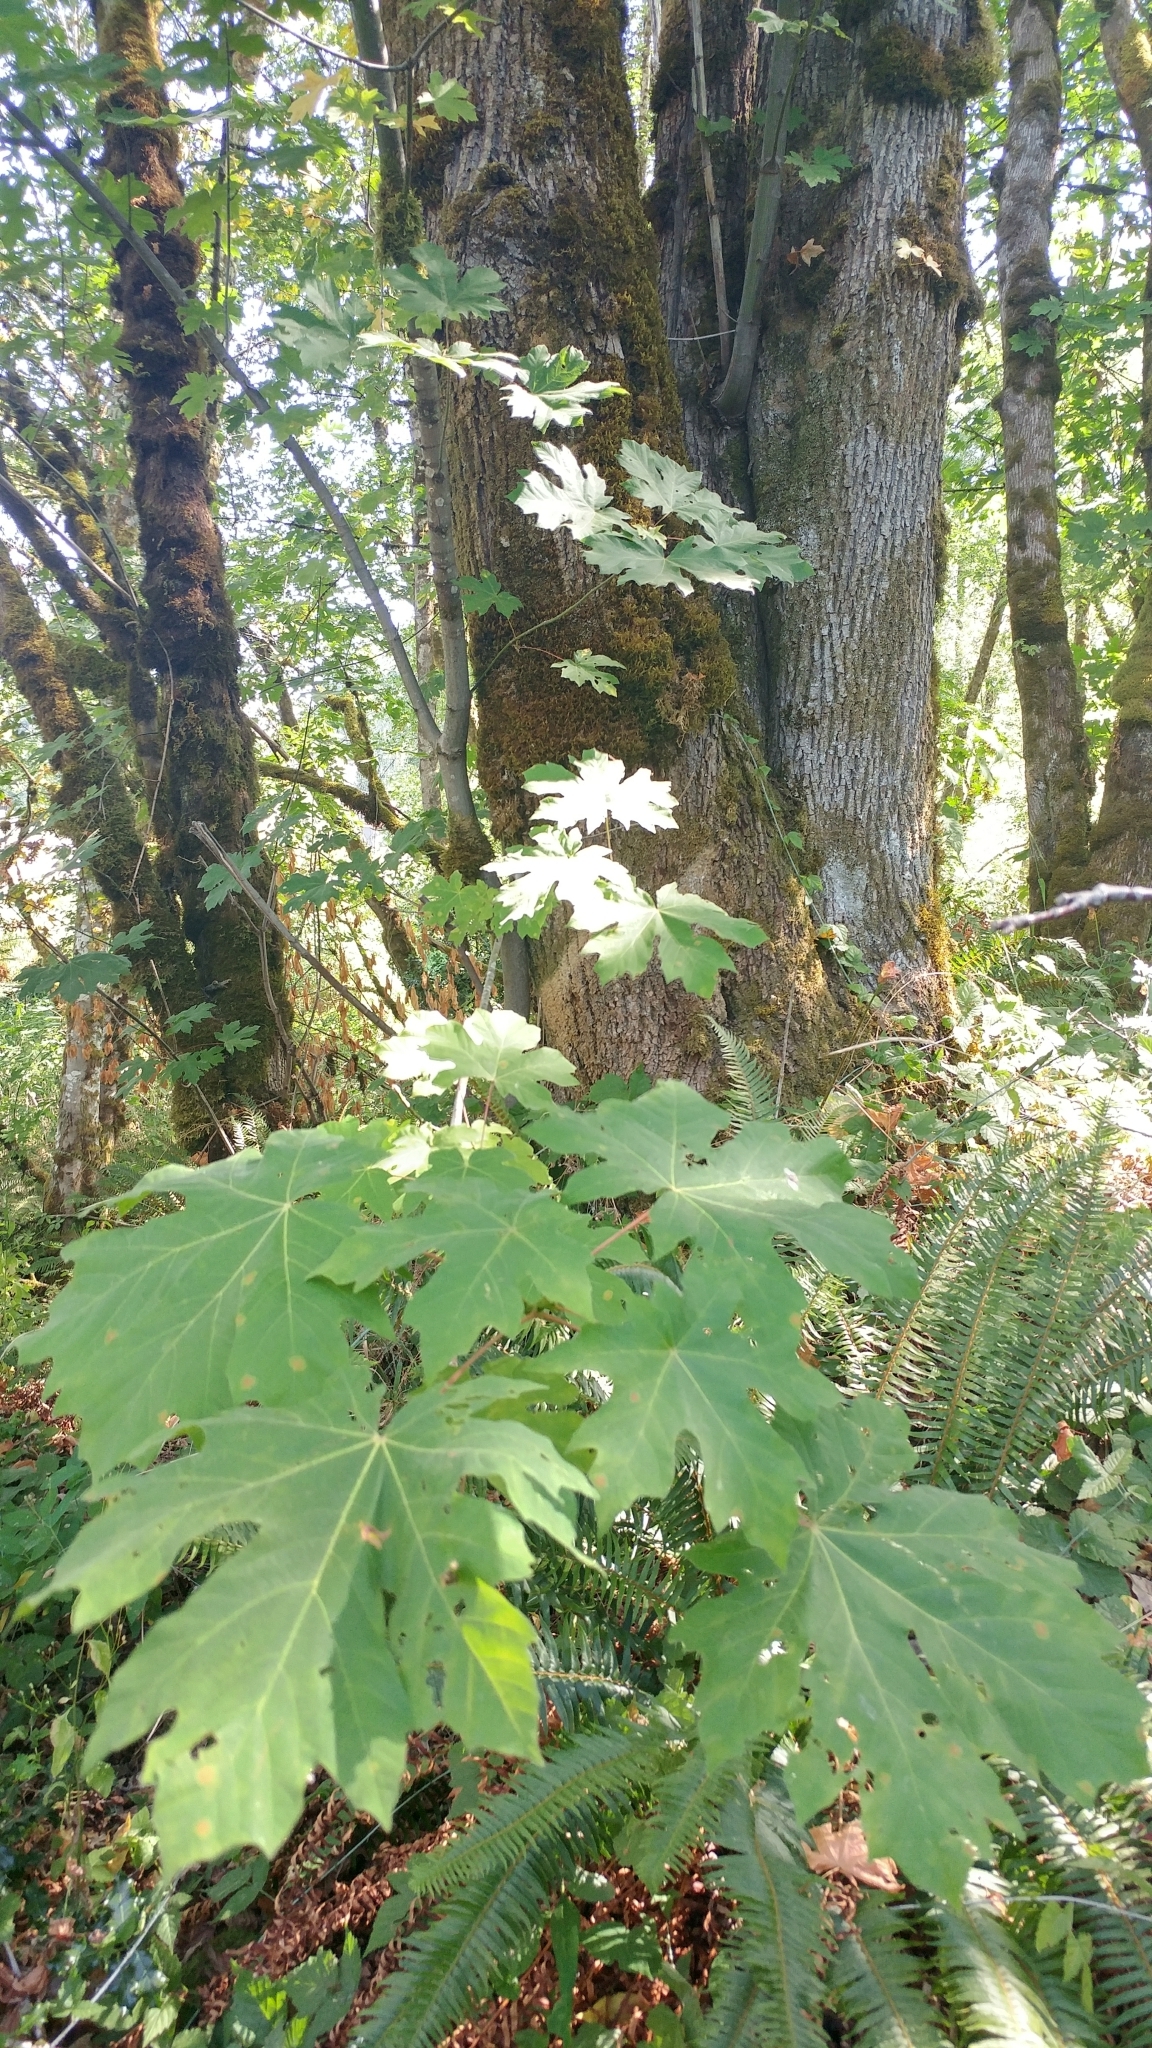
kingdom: Plantae
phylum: Tracheophyta
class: Magnoliopsida
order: Sapindales
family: Sapindaceae
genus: Acer
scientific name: Acer macrophyllum
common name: Oregon maple
